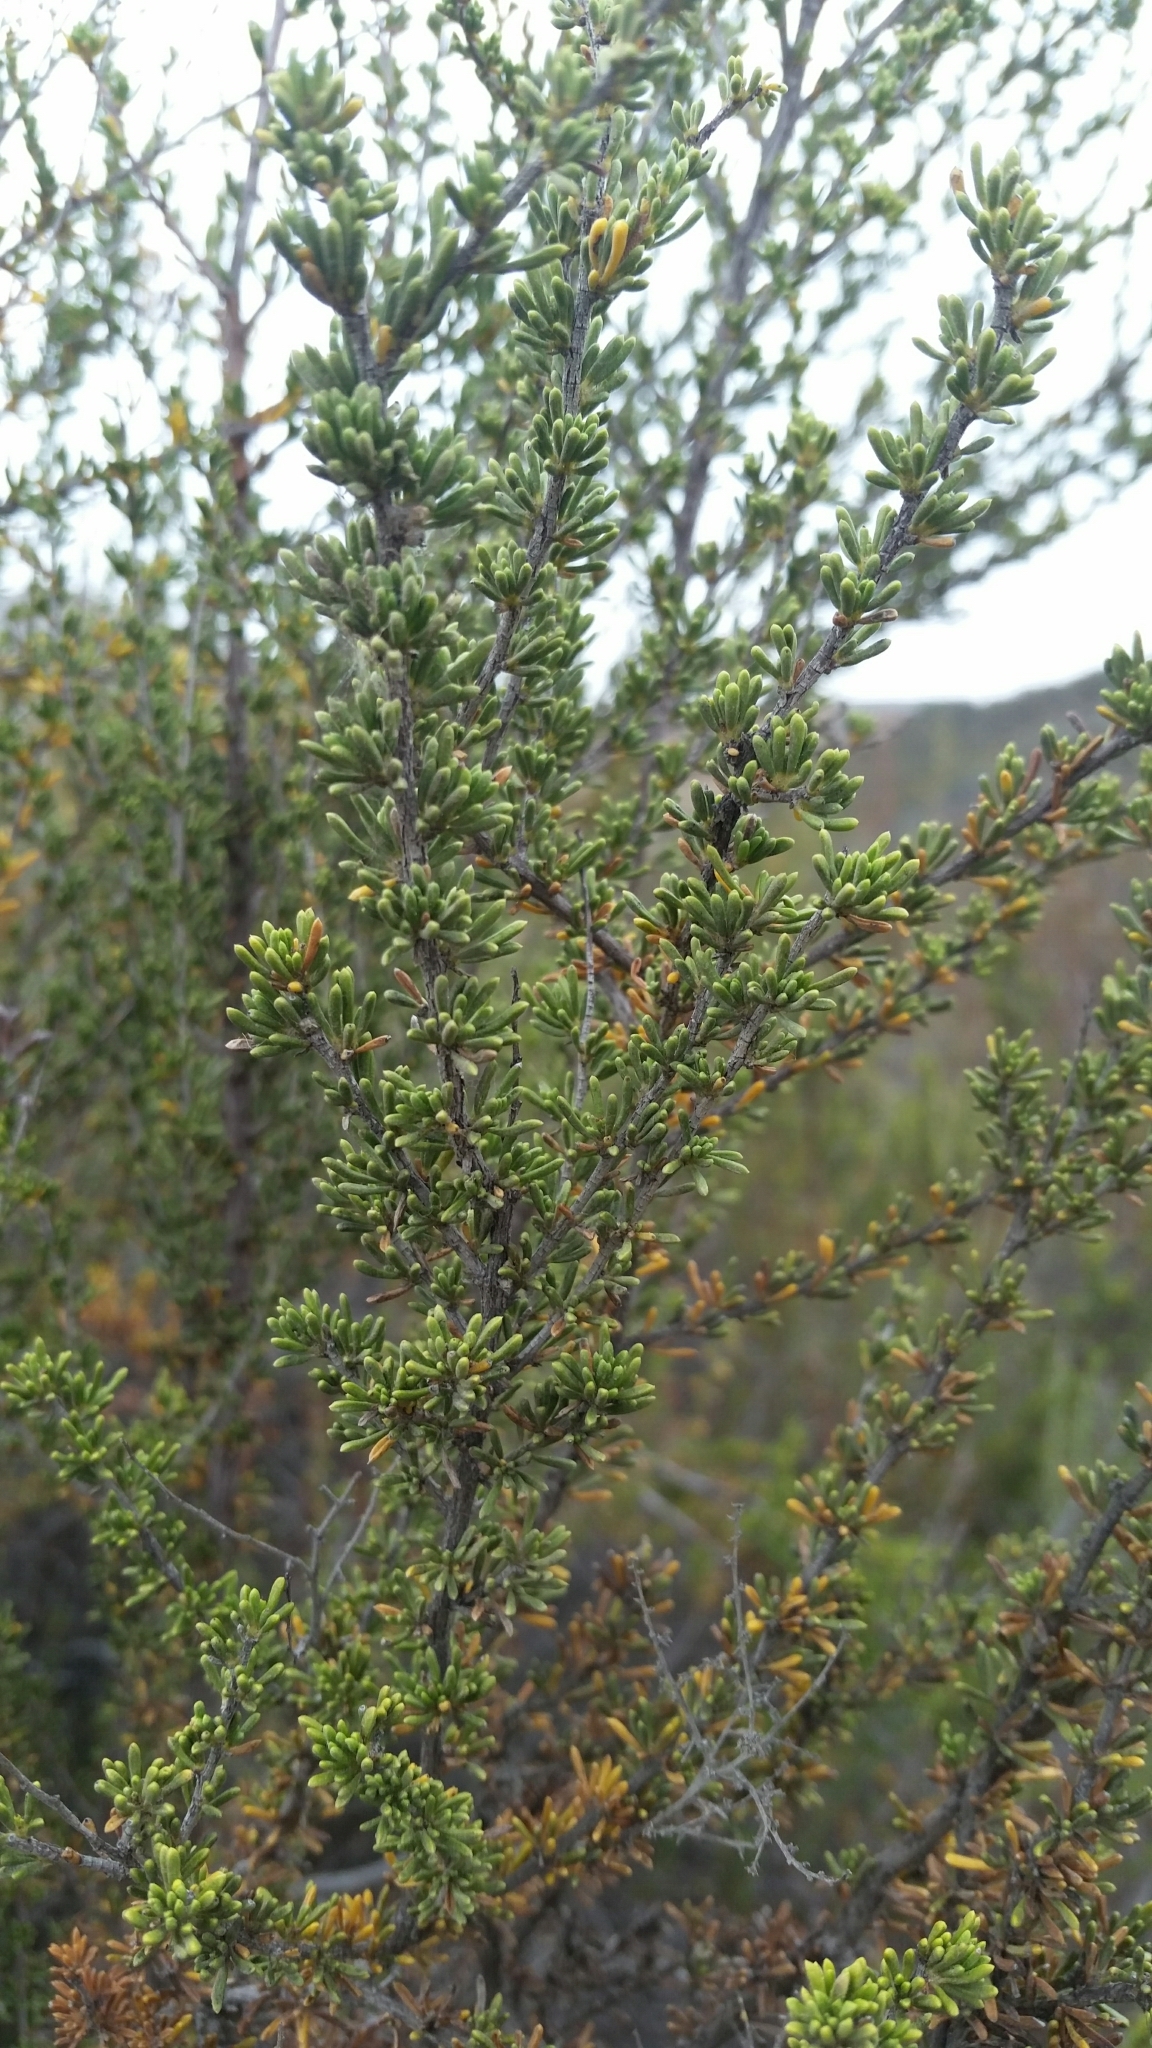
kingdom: Plantae
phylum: Tracheophyta
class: Magnoliopsida
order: Rosales
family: Rosaceae
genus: Adenostoma
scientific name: Adenostoma fasciculatum
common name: Chamise
